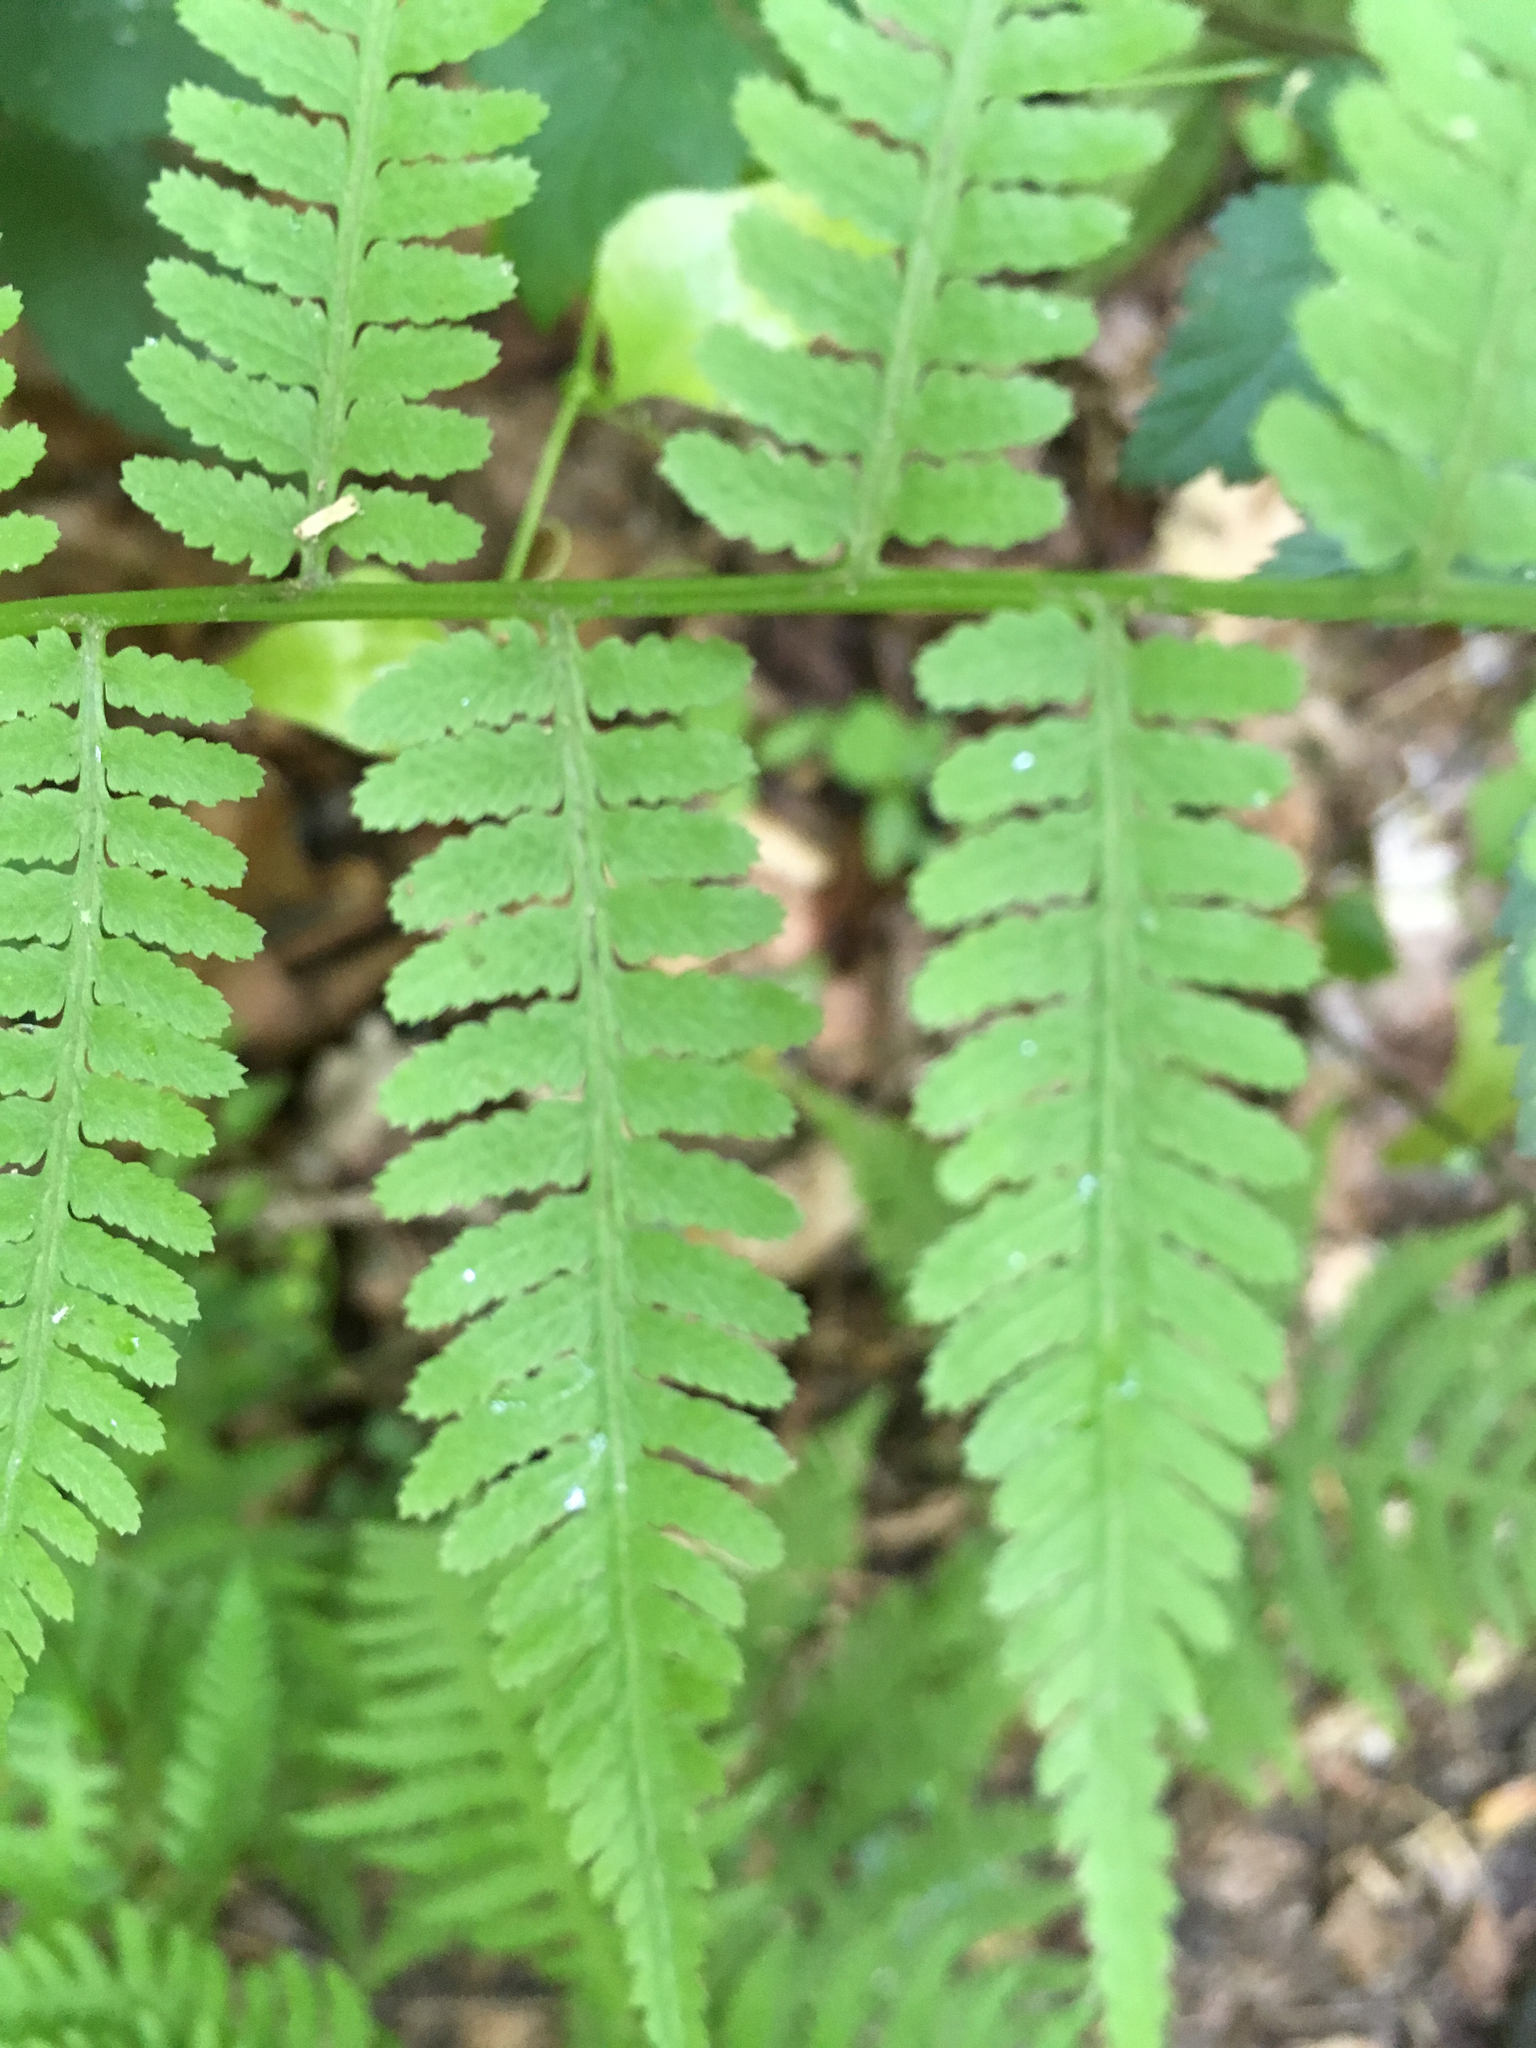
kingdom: Plantae
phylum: Tracheophyta
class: Polypodiopsida
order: Polypodiales
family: Athyriaceae
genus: Athyrium
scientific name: Athyrium asplenioides
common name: Southern lady fern
